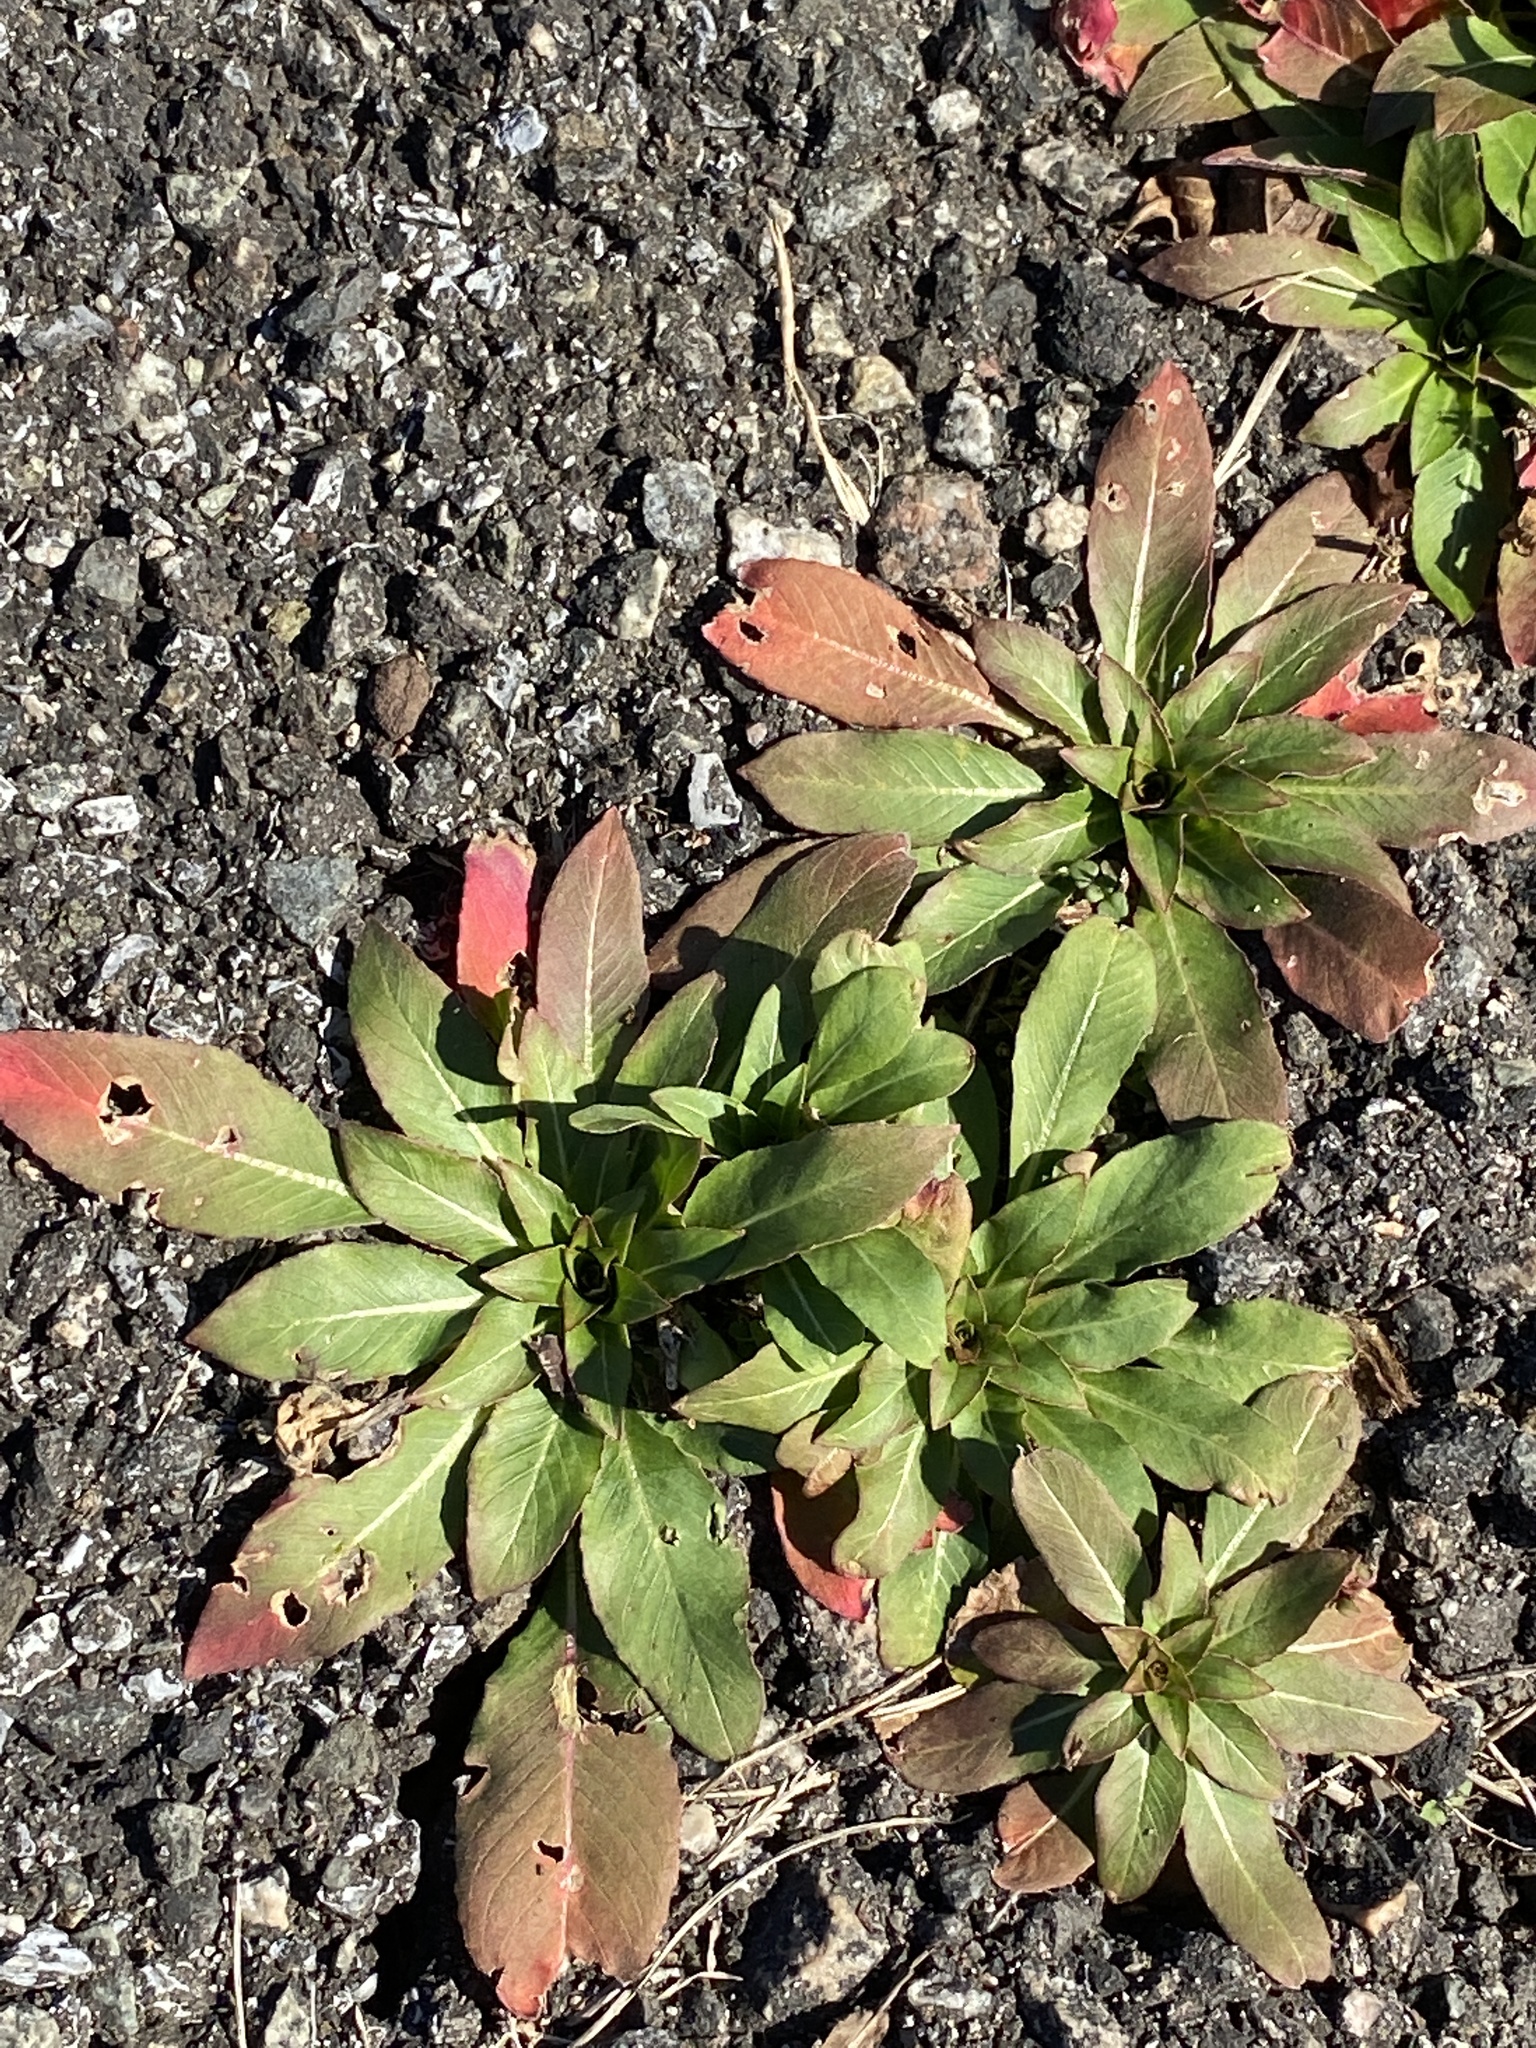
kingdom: Plantae
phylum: Tracheophyta
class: Magnoliopsida
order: Myrtales
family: Onagraceae
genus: Oenothera
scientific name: Oenothera biennis
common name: Common evening-primrose
